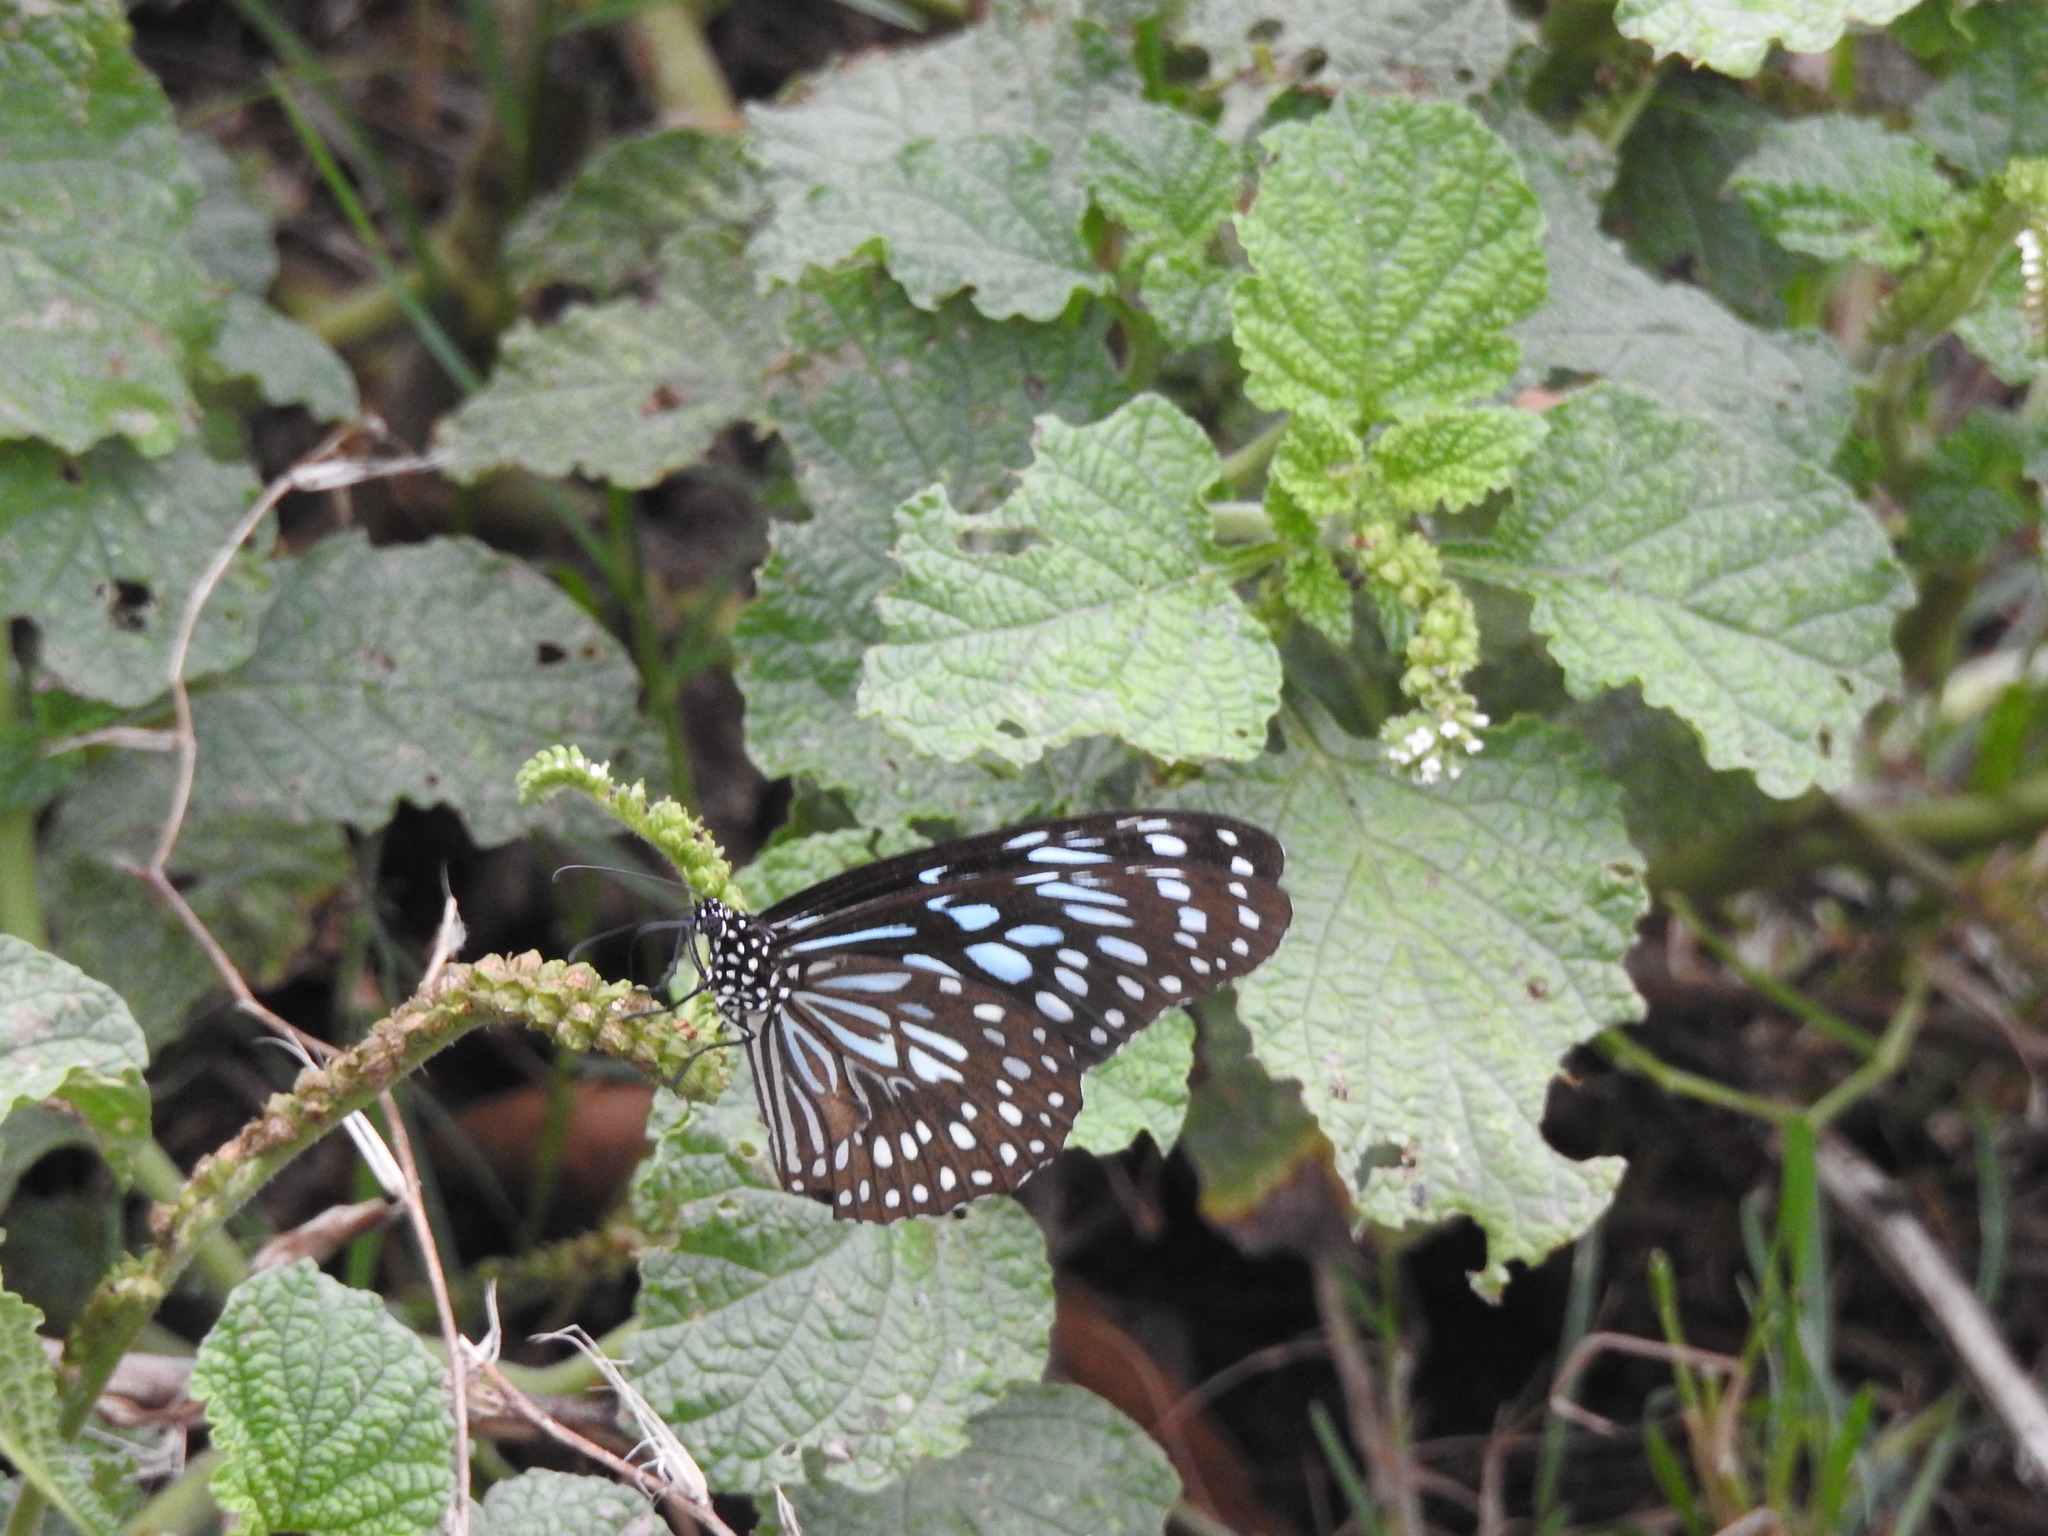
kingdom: Animalia
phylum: Arthropoda
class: Insecta
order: Lepidoptera
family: Nymphalidae
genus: Tirumala
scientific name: Tirumala septentrionis
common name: Dark blue tiger butterfly
